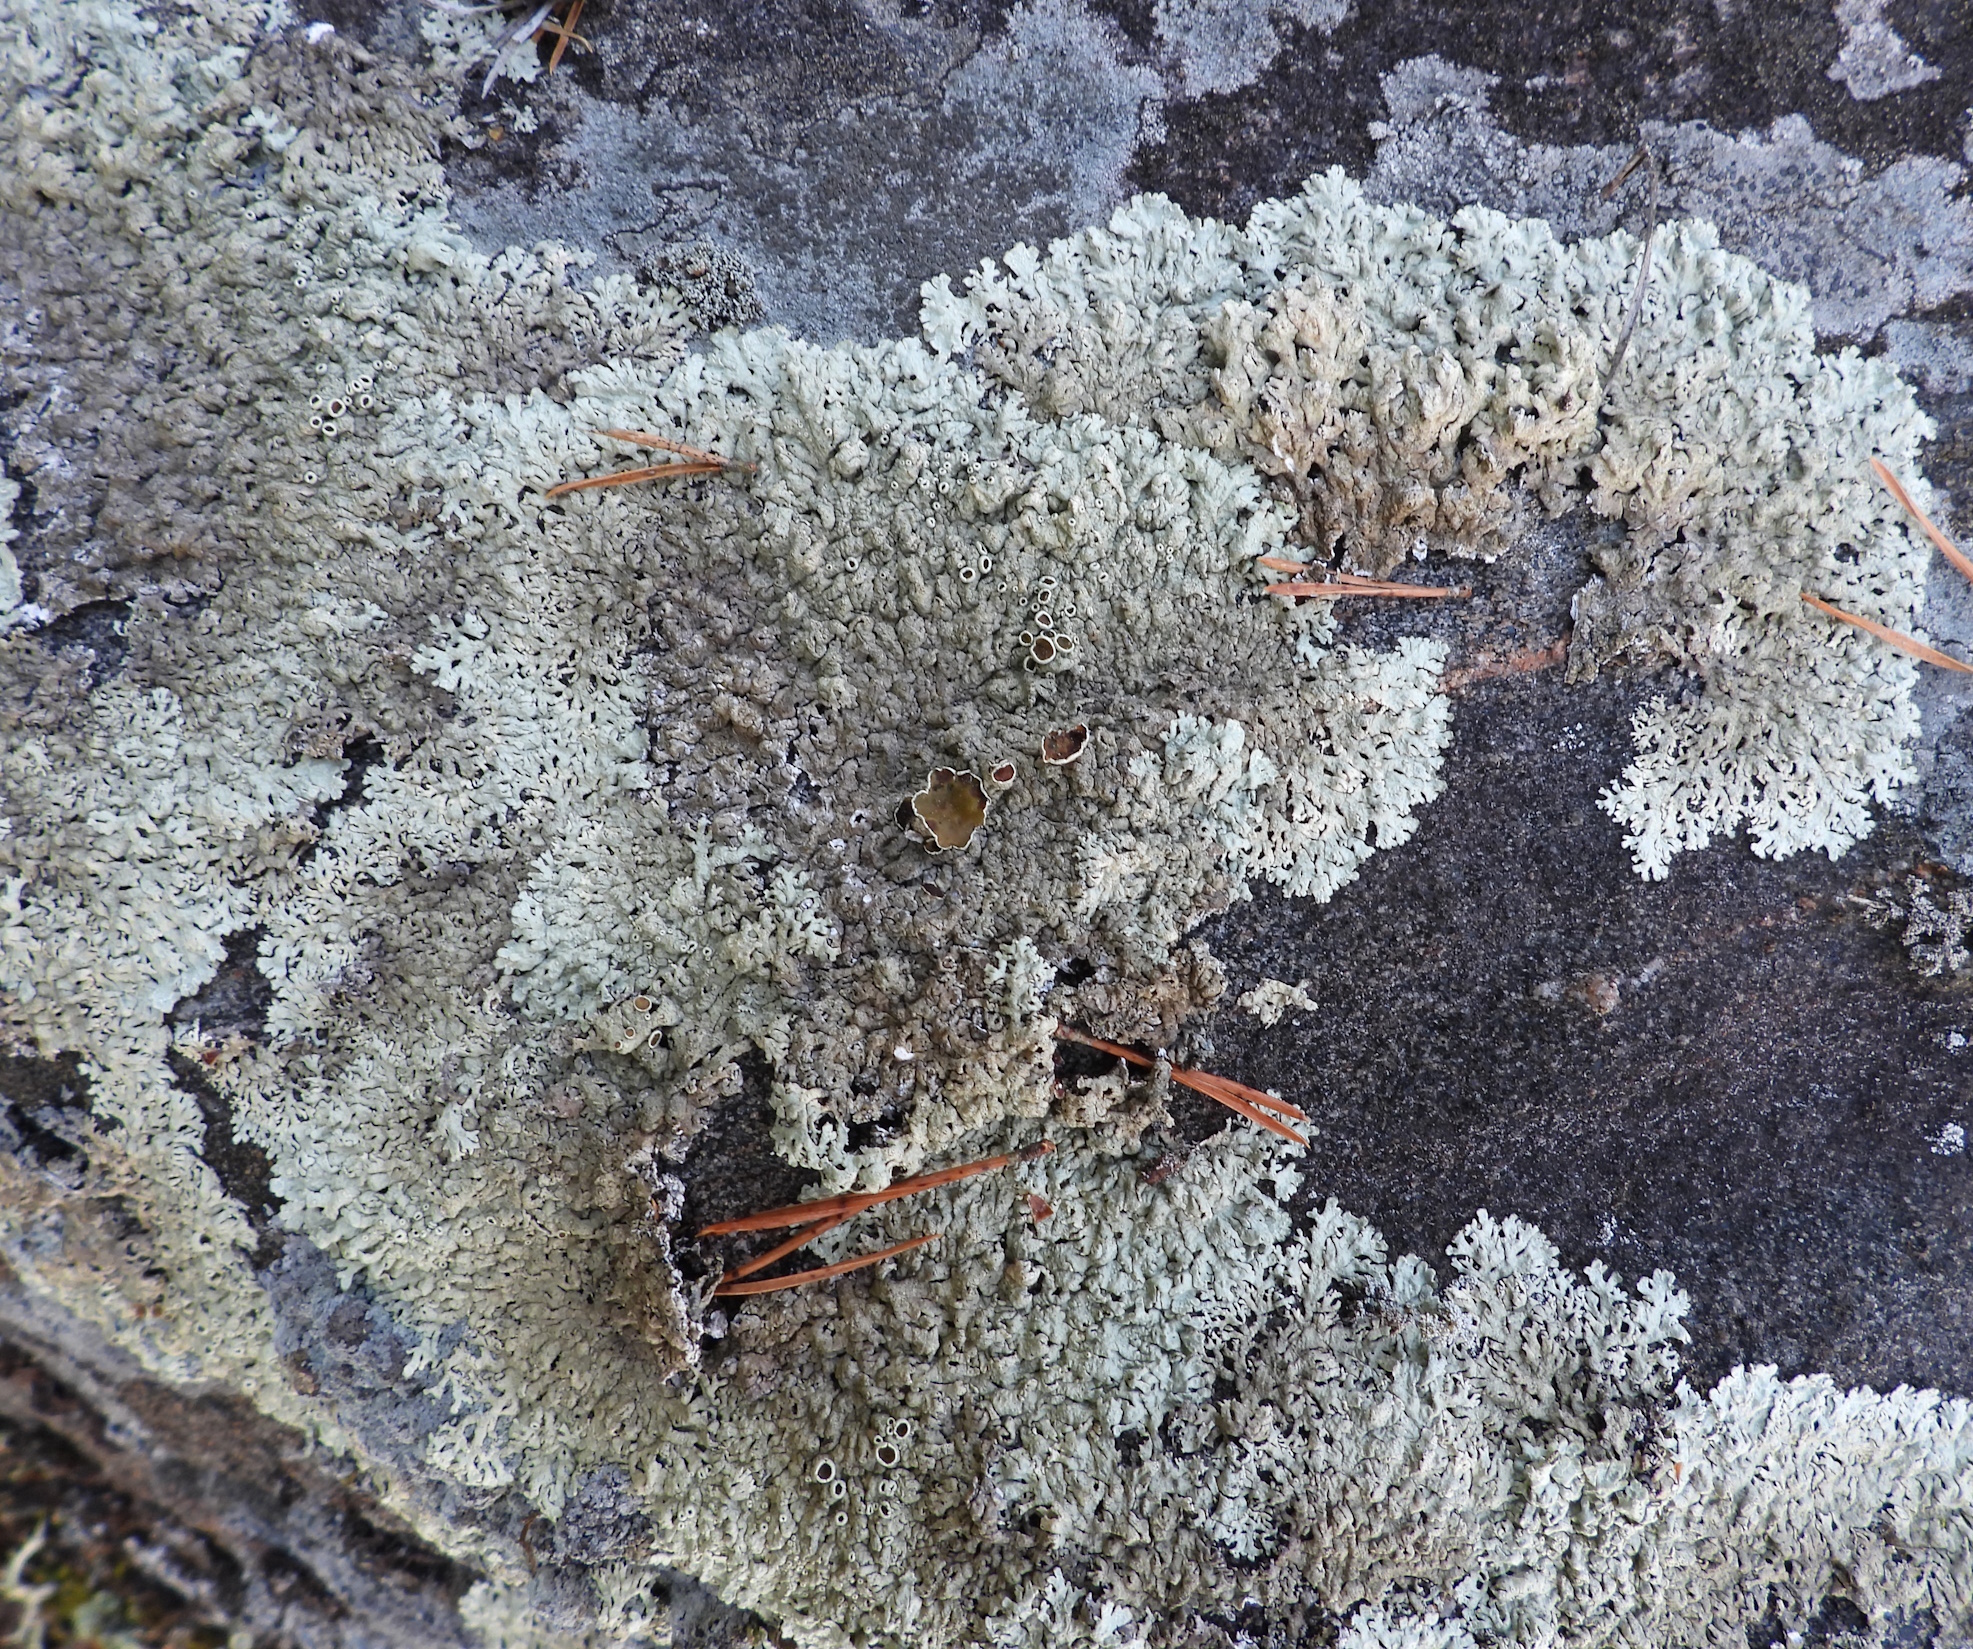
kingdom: Fungi
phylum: Ascomycota
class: Lecanoromycetes
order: Lecanorales
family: Parmeliaceae
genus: Arctoparmelia
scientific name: Arctoparmelia centrifuga
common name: Concentric ring lichen
